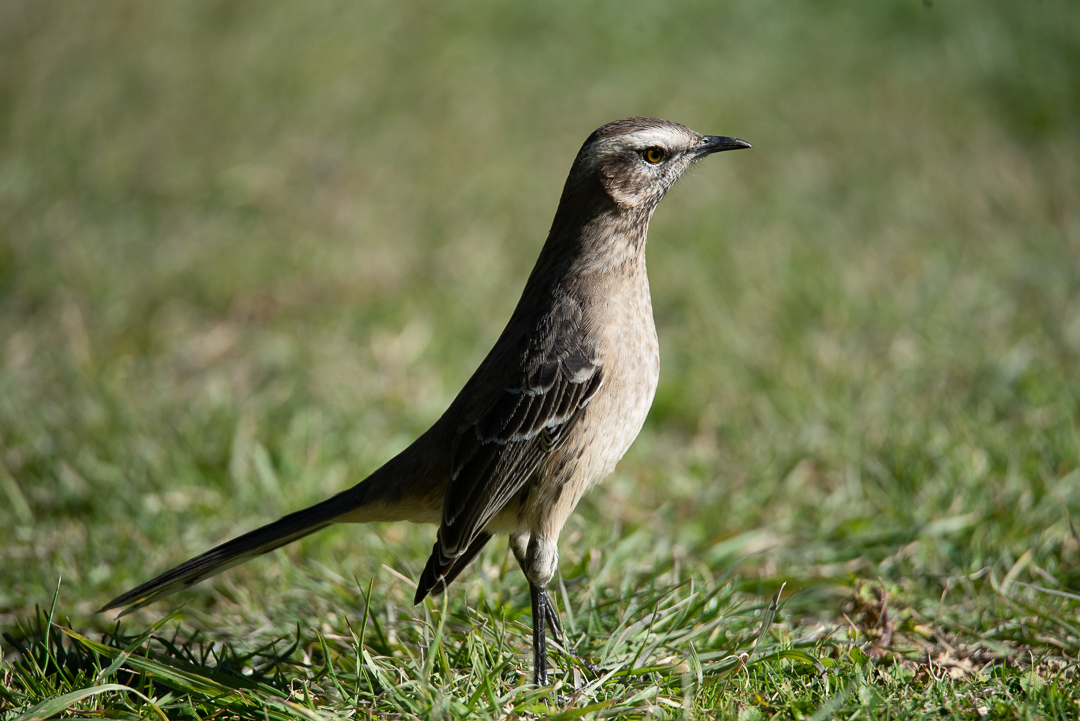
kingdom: Animalia
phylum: Chordata
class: Aves
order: Passeriformes
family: Mimidae
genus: Mimus
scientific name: Mimus thenca
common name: Chilean mockingbird
